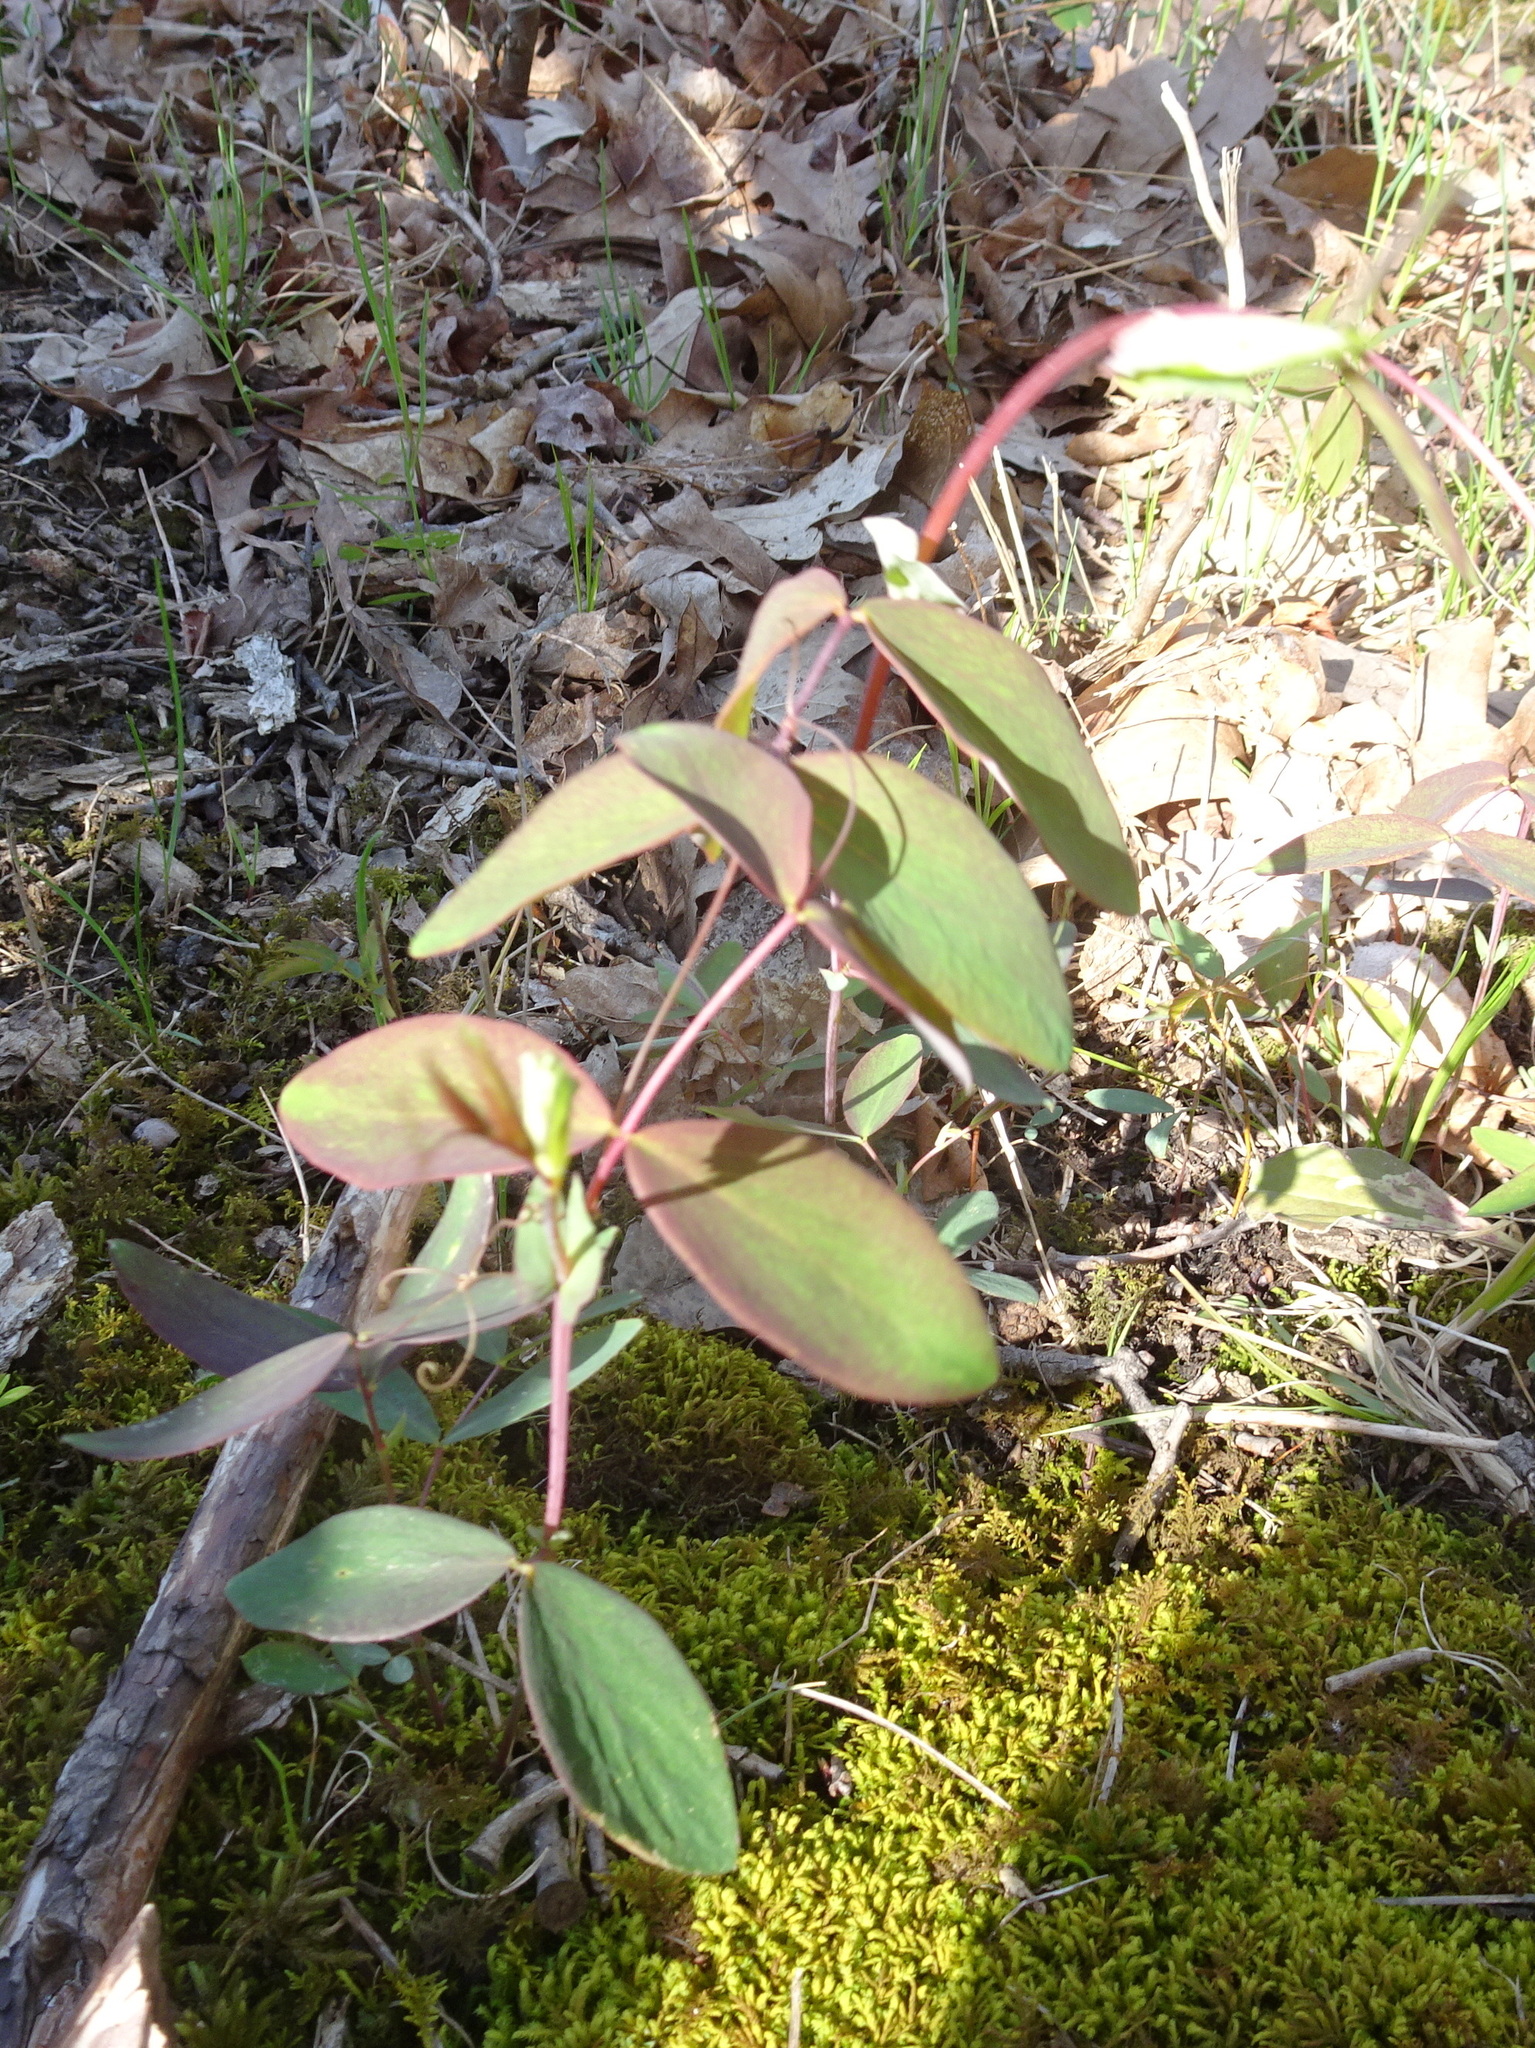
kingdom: Plantae
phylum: Tracheophyta
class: Magnoliopsida
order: Fabales
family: Fabaceae
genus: Lathyrus
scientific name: Lathyrus ochroleucus
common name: Pale vetchling
